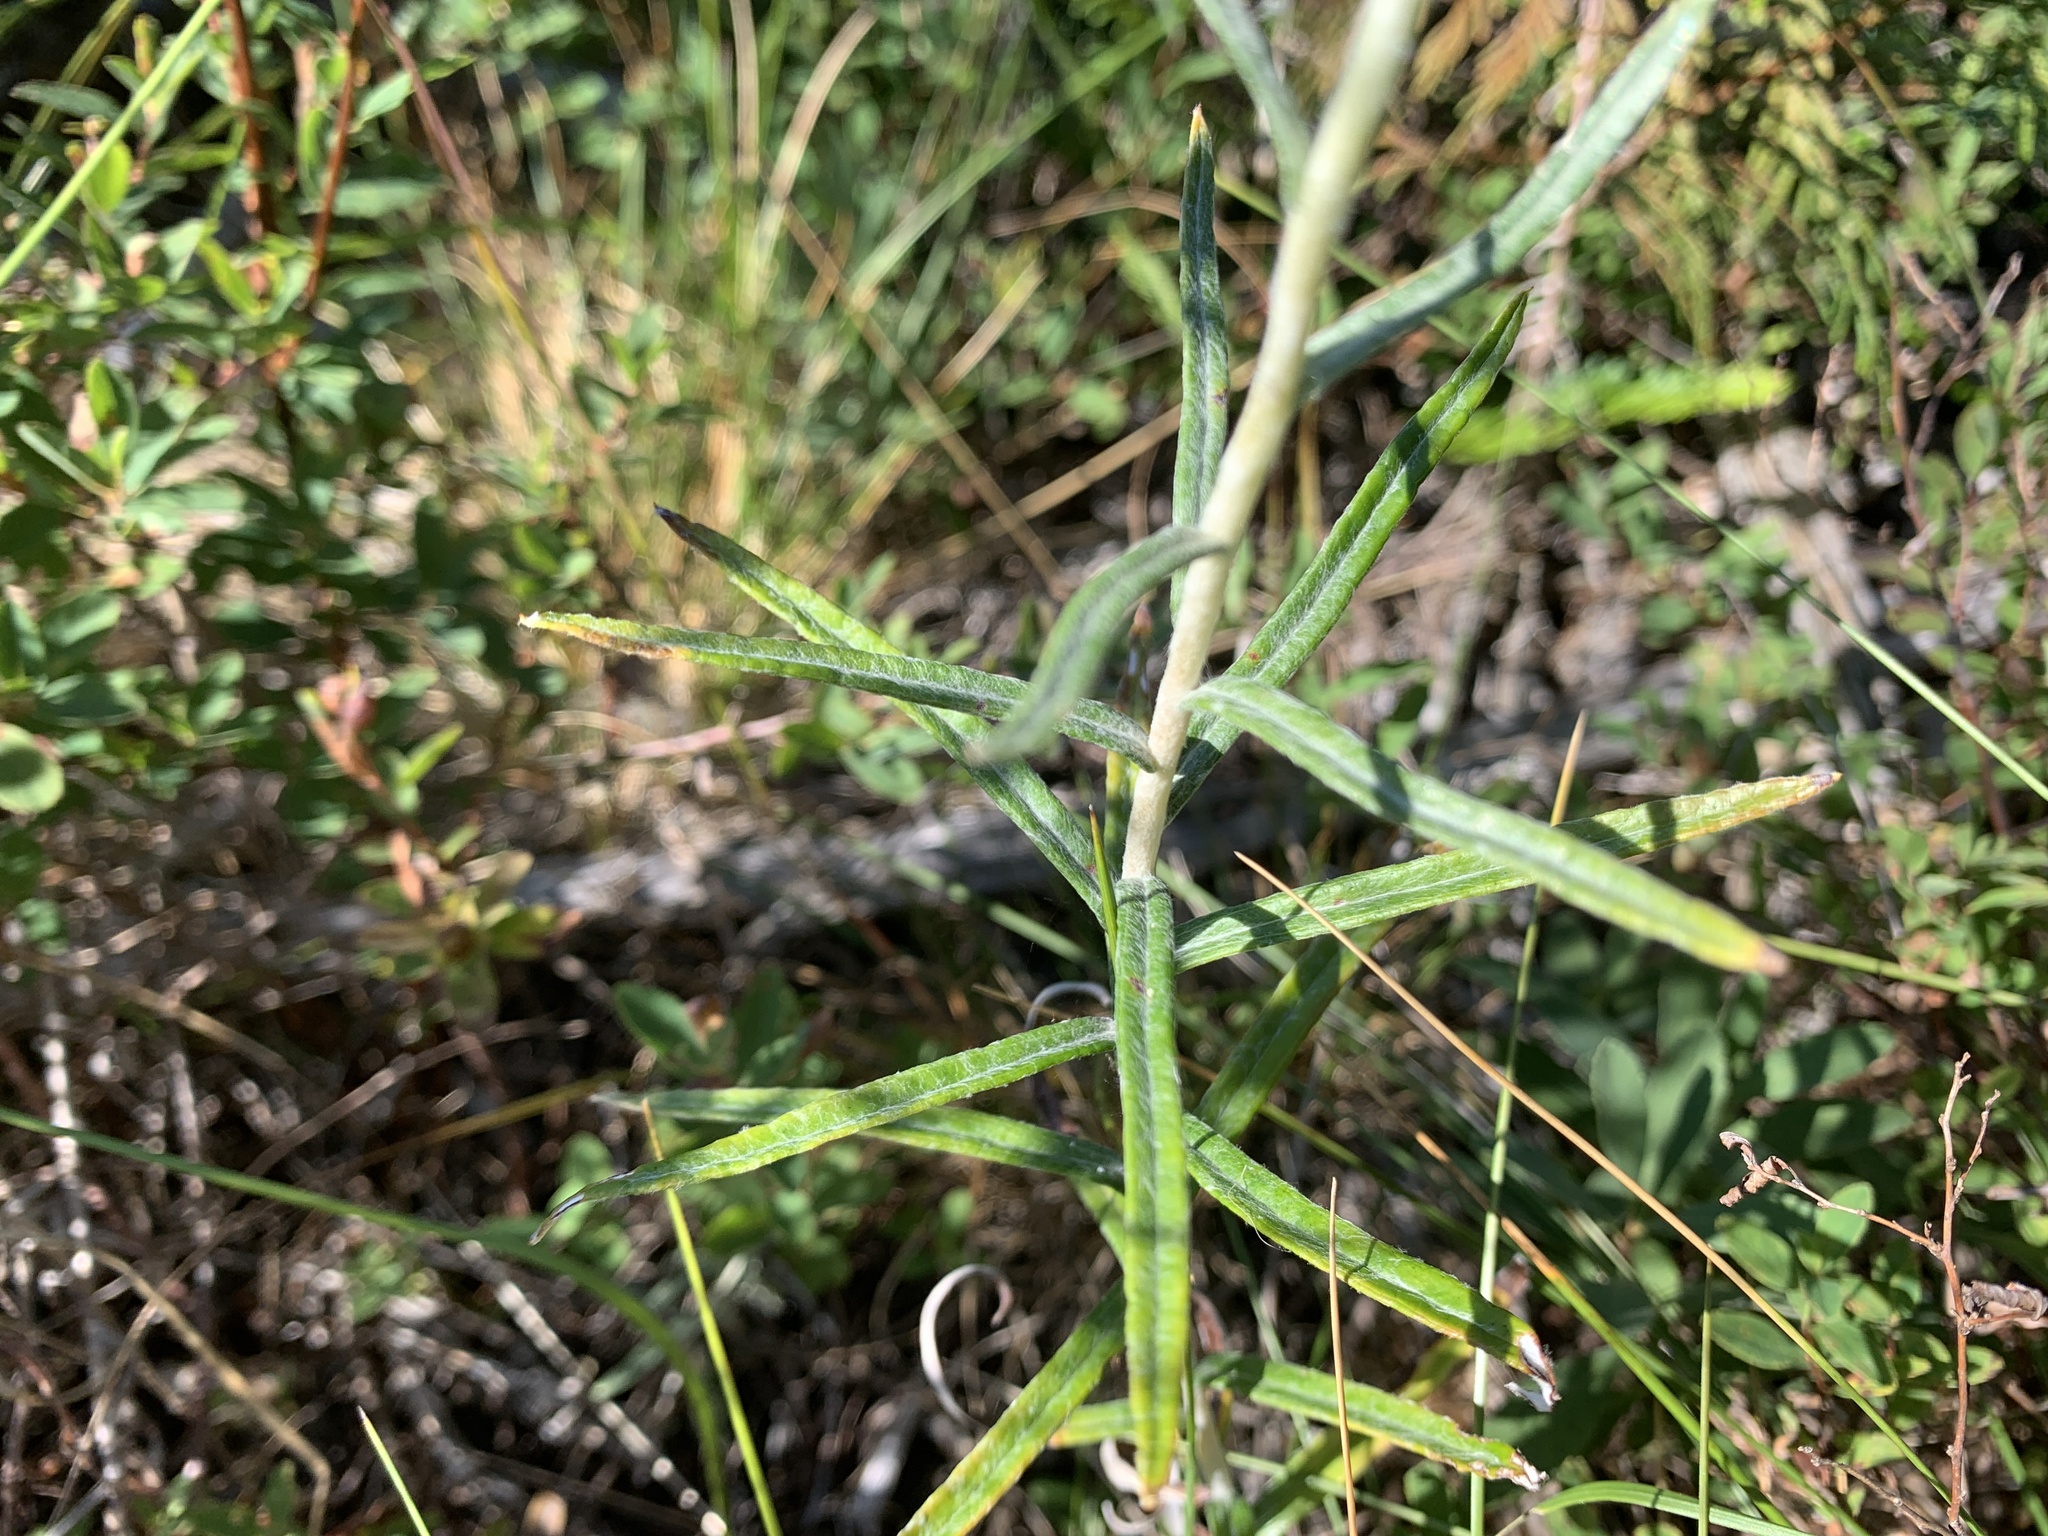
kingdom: Plantae
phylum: Tracheophyta
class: Magnoliopsida
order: Asterales
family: Asteraceae
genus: Anaphalis
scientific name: Anaphalis margaritacea
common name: Pearly everlasting
